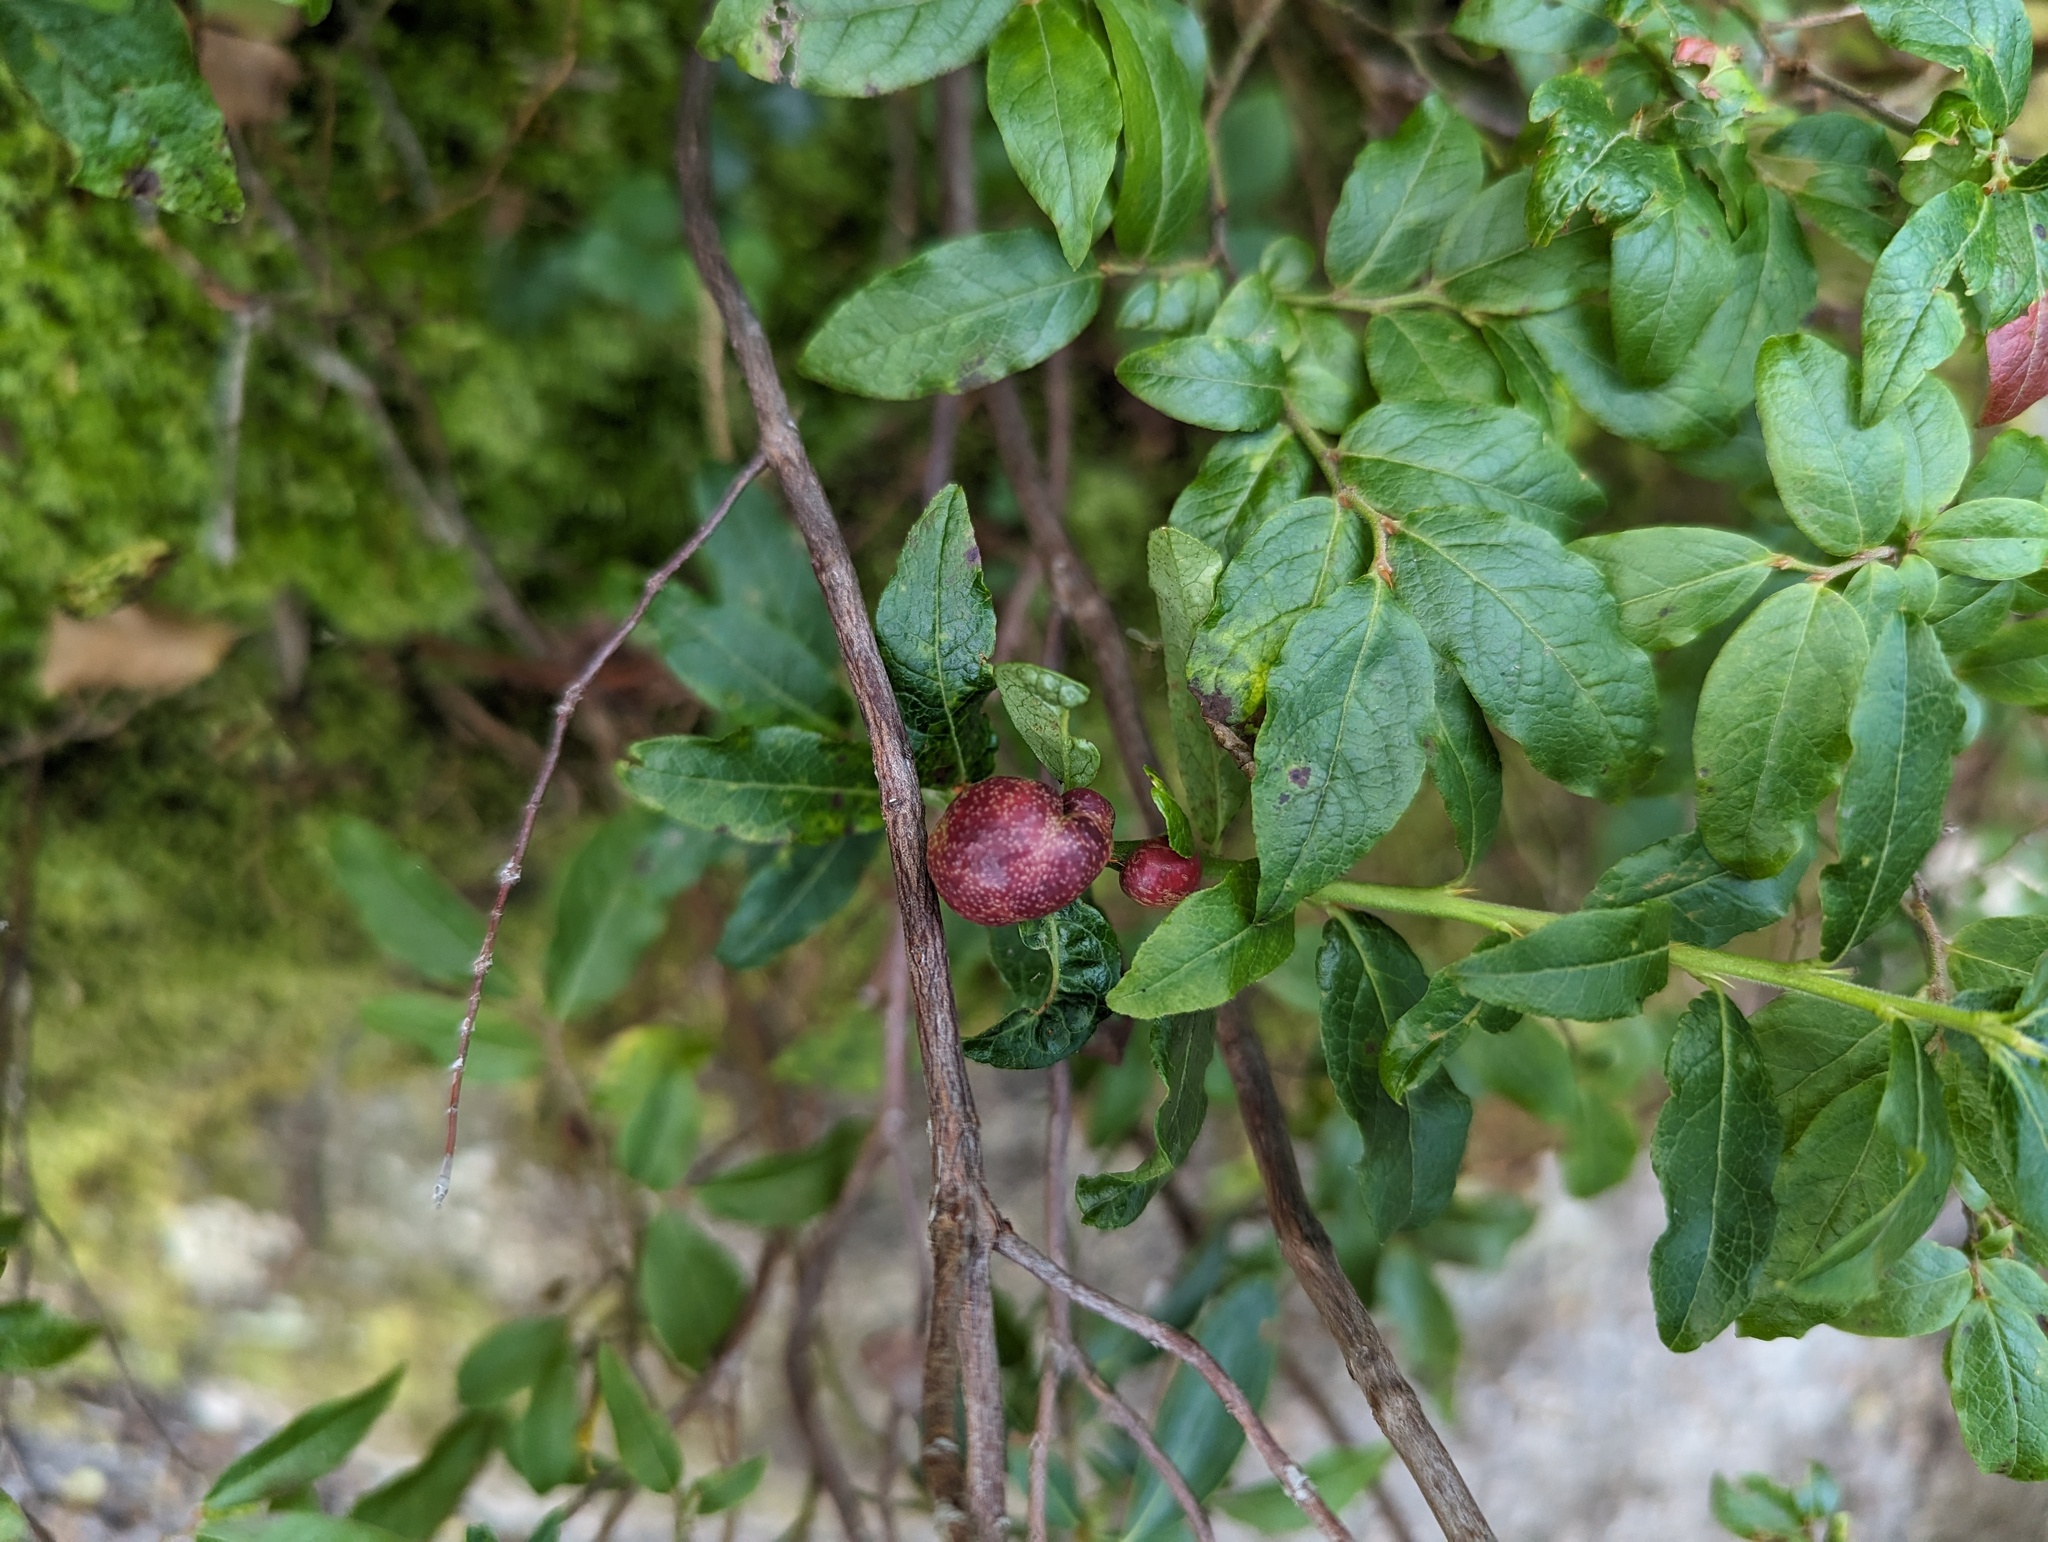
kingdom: Animalia
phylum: Arthropoda
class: Insecta
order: Hymenoptera
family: Pteromalidae
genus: Hemadas
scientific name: Hemadas nubilipennis
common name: Blueberry stem gall wasp
